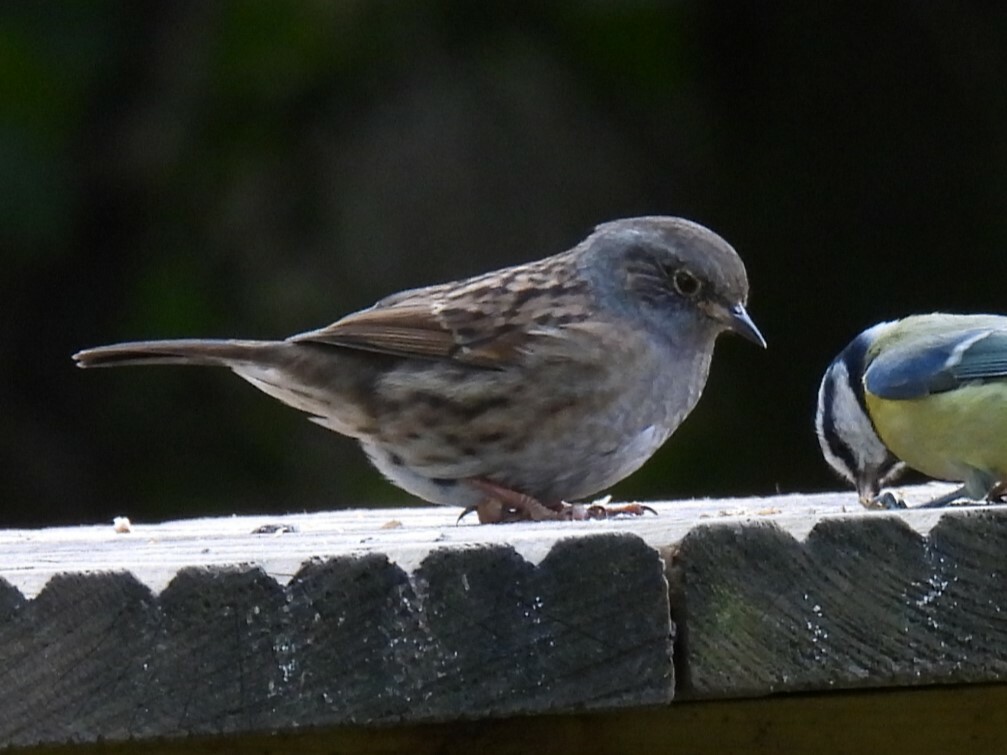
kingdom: Animalia
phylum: Chordata
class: Aves
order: Passeriformes
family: Prunellidae
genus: Prunella
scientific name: Prunella modularis
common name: Dunnock
